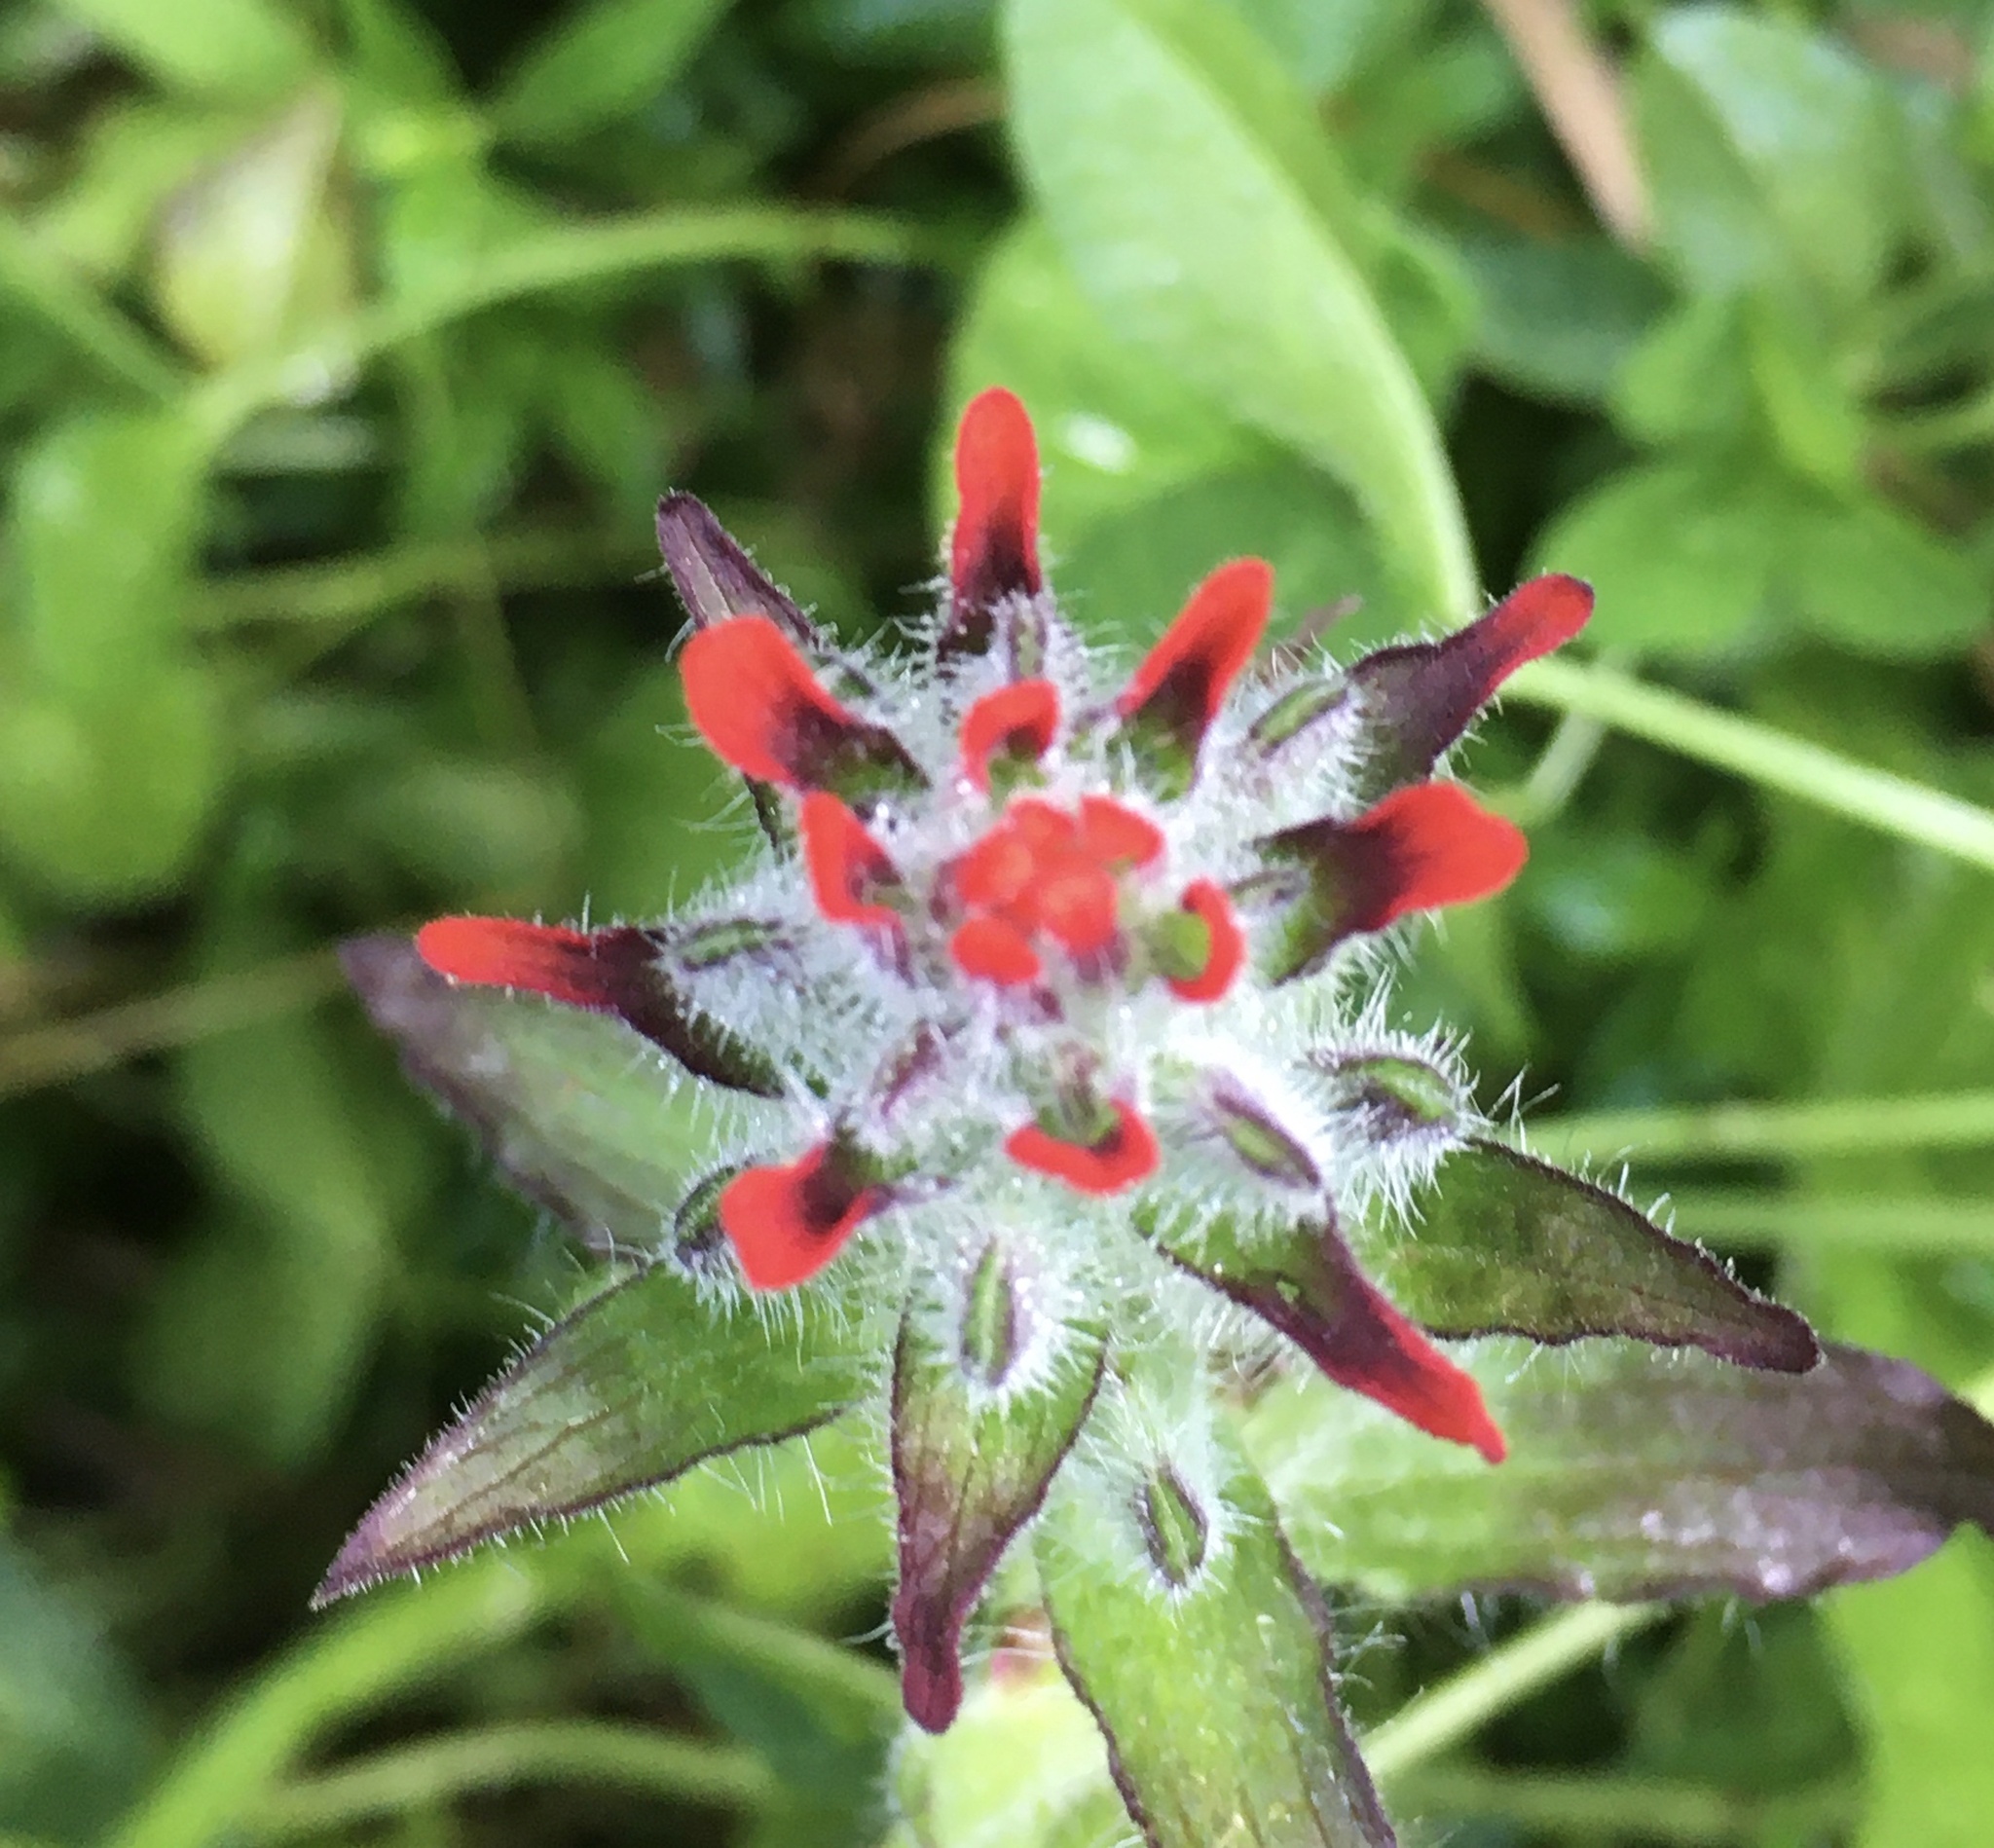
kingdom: Plantae
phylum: Tracheophyta
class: Magnoliopsida
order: Lamiales
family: Orobanchaceae
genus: Castilleja
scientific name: Castilleja arvensis
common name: Indian paintbrush
